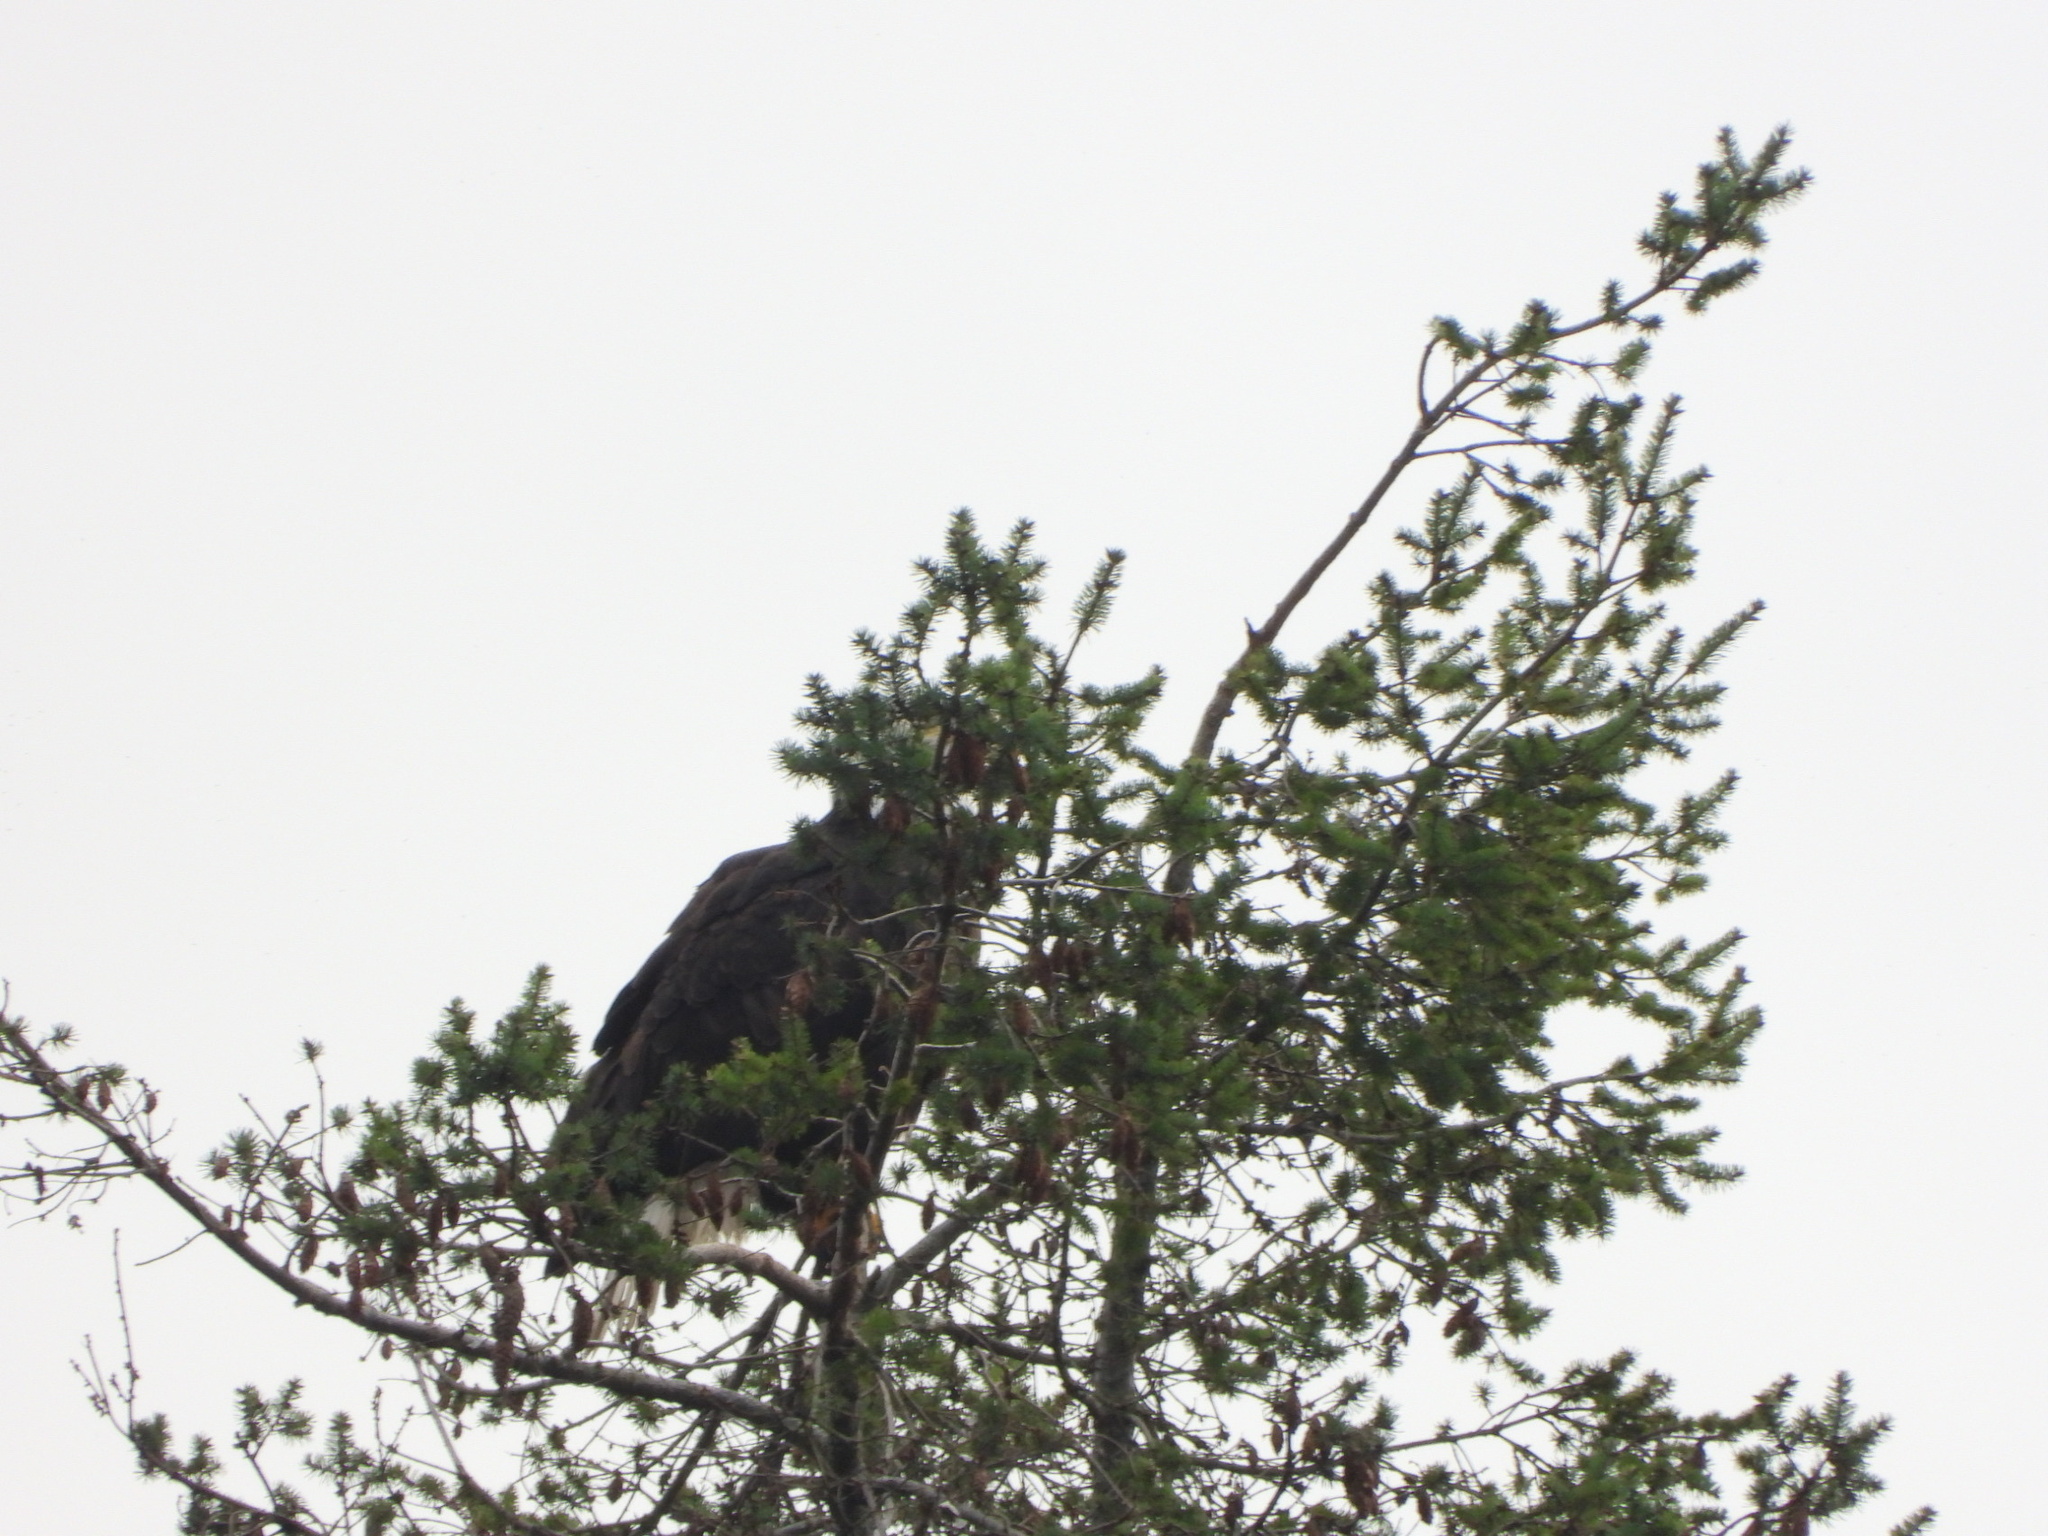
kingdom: Animalia
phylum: Chordata
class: Aves
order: Accipitriformes
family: Accipitridae
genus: Haliaeetus
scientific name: Haliaeetus leucocephalus
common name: Bald eagle
